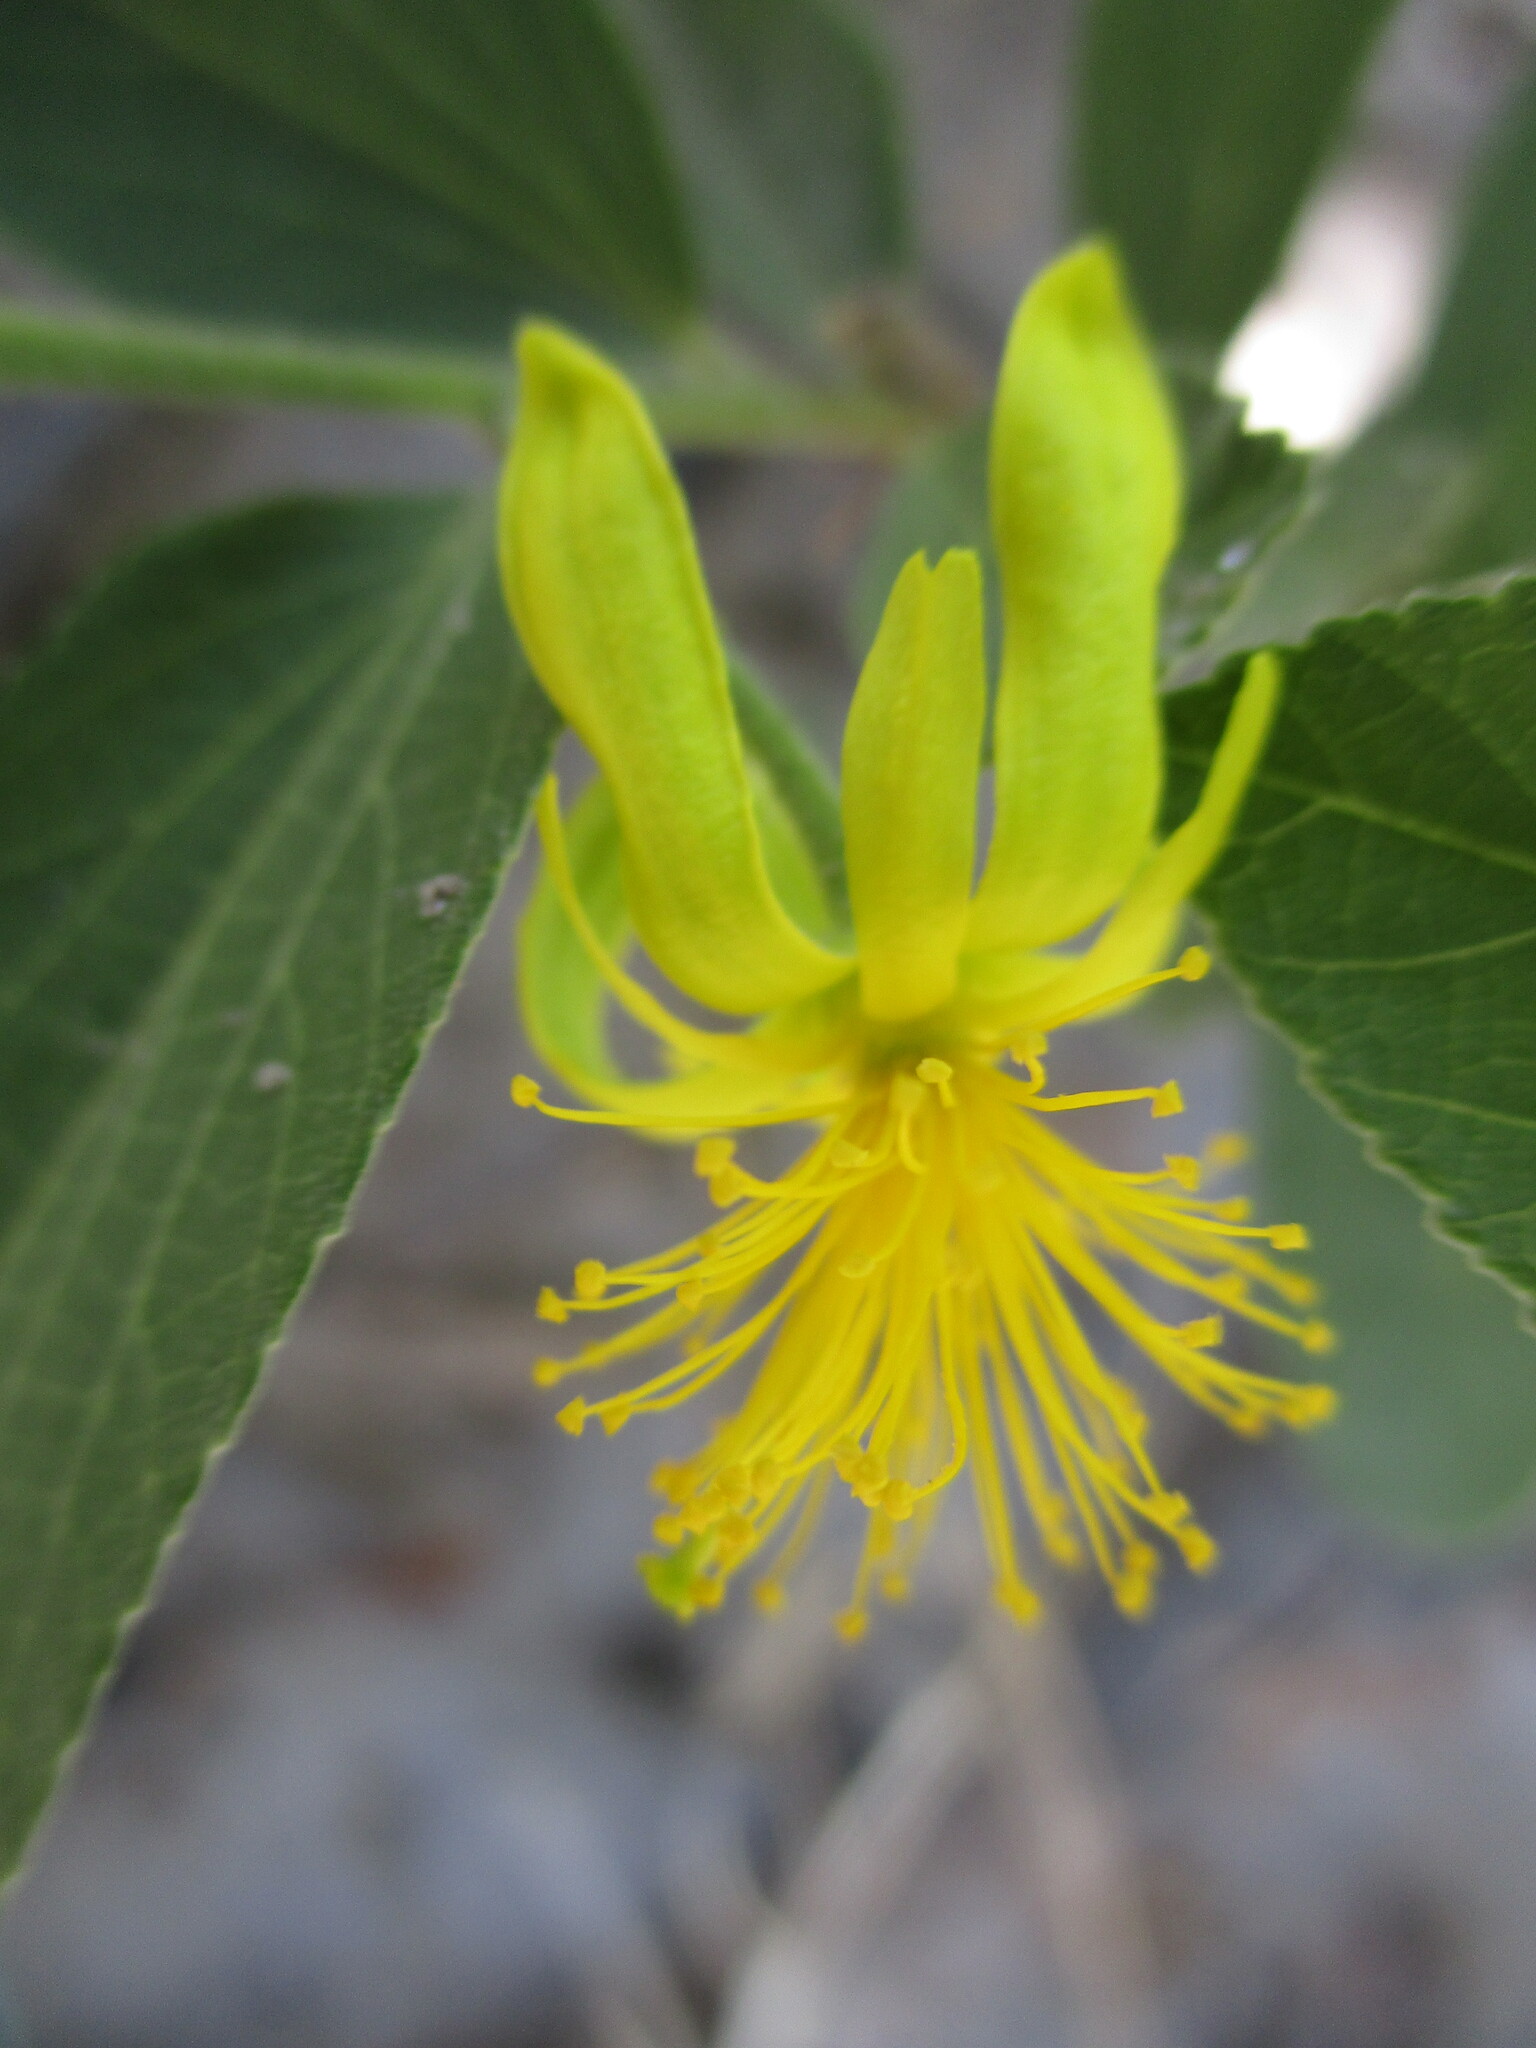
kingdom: Plantae
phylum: Tracheophyta
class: Magnoliopsida
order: Malvales
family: Malvaceae
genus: Grewia
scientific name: Grewia flava
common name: Brandy bush
